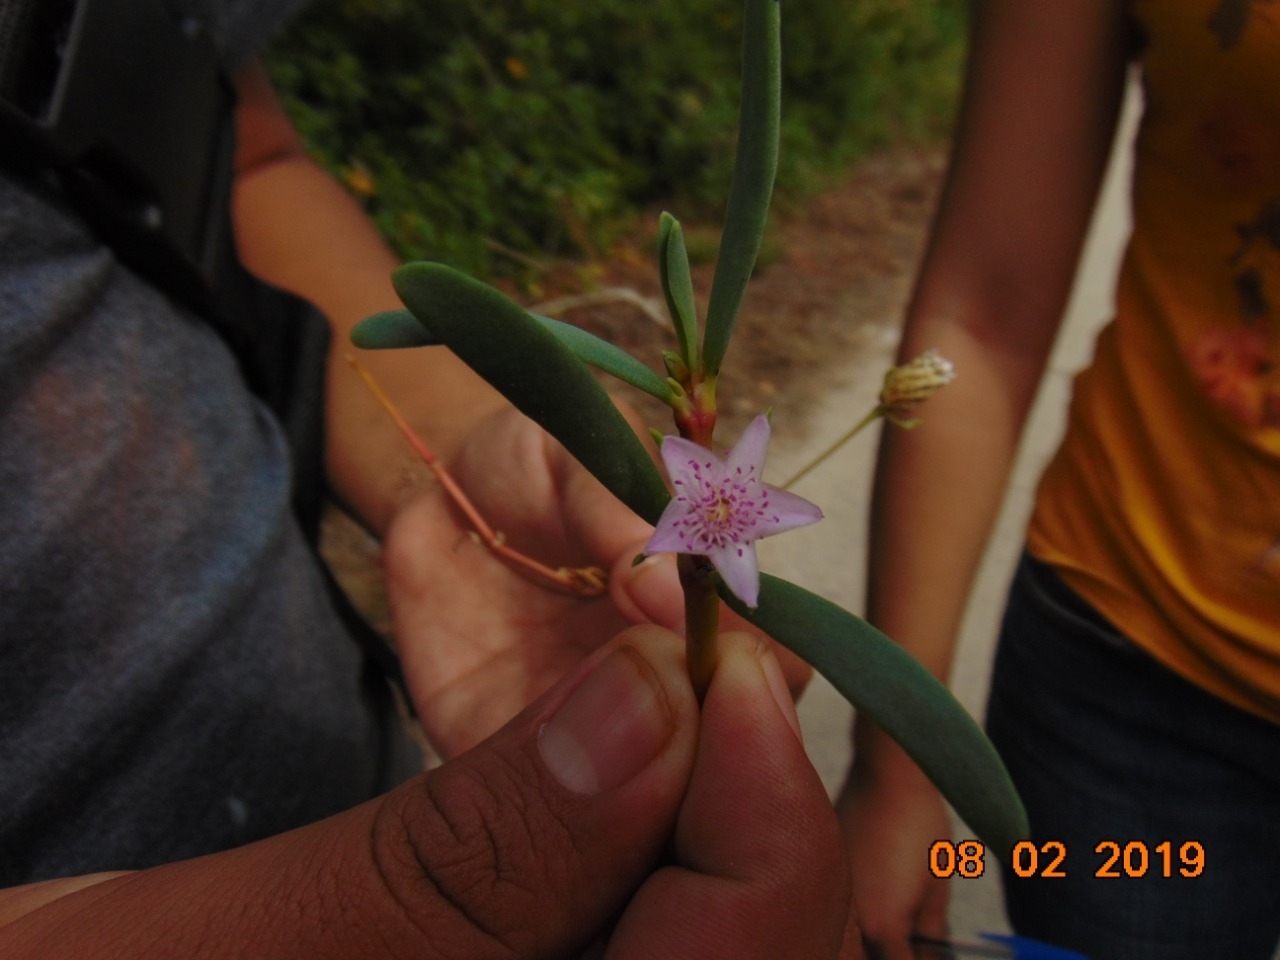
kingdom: Plantae
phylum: Tracheophyta
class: Magnoliopsida
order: Caryophyllales
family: Aizoaceae
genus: Sesuvium
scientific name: Sesuvium portulacastrum
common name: Sea-purslane
